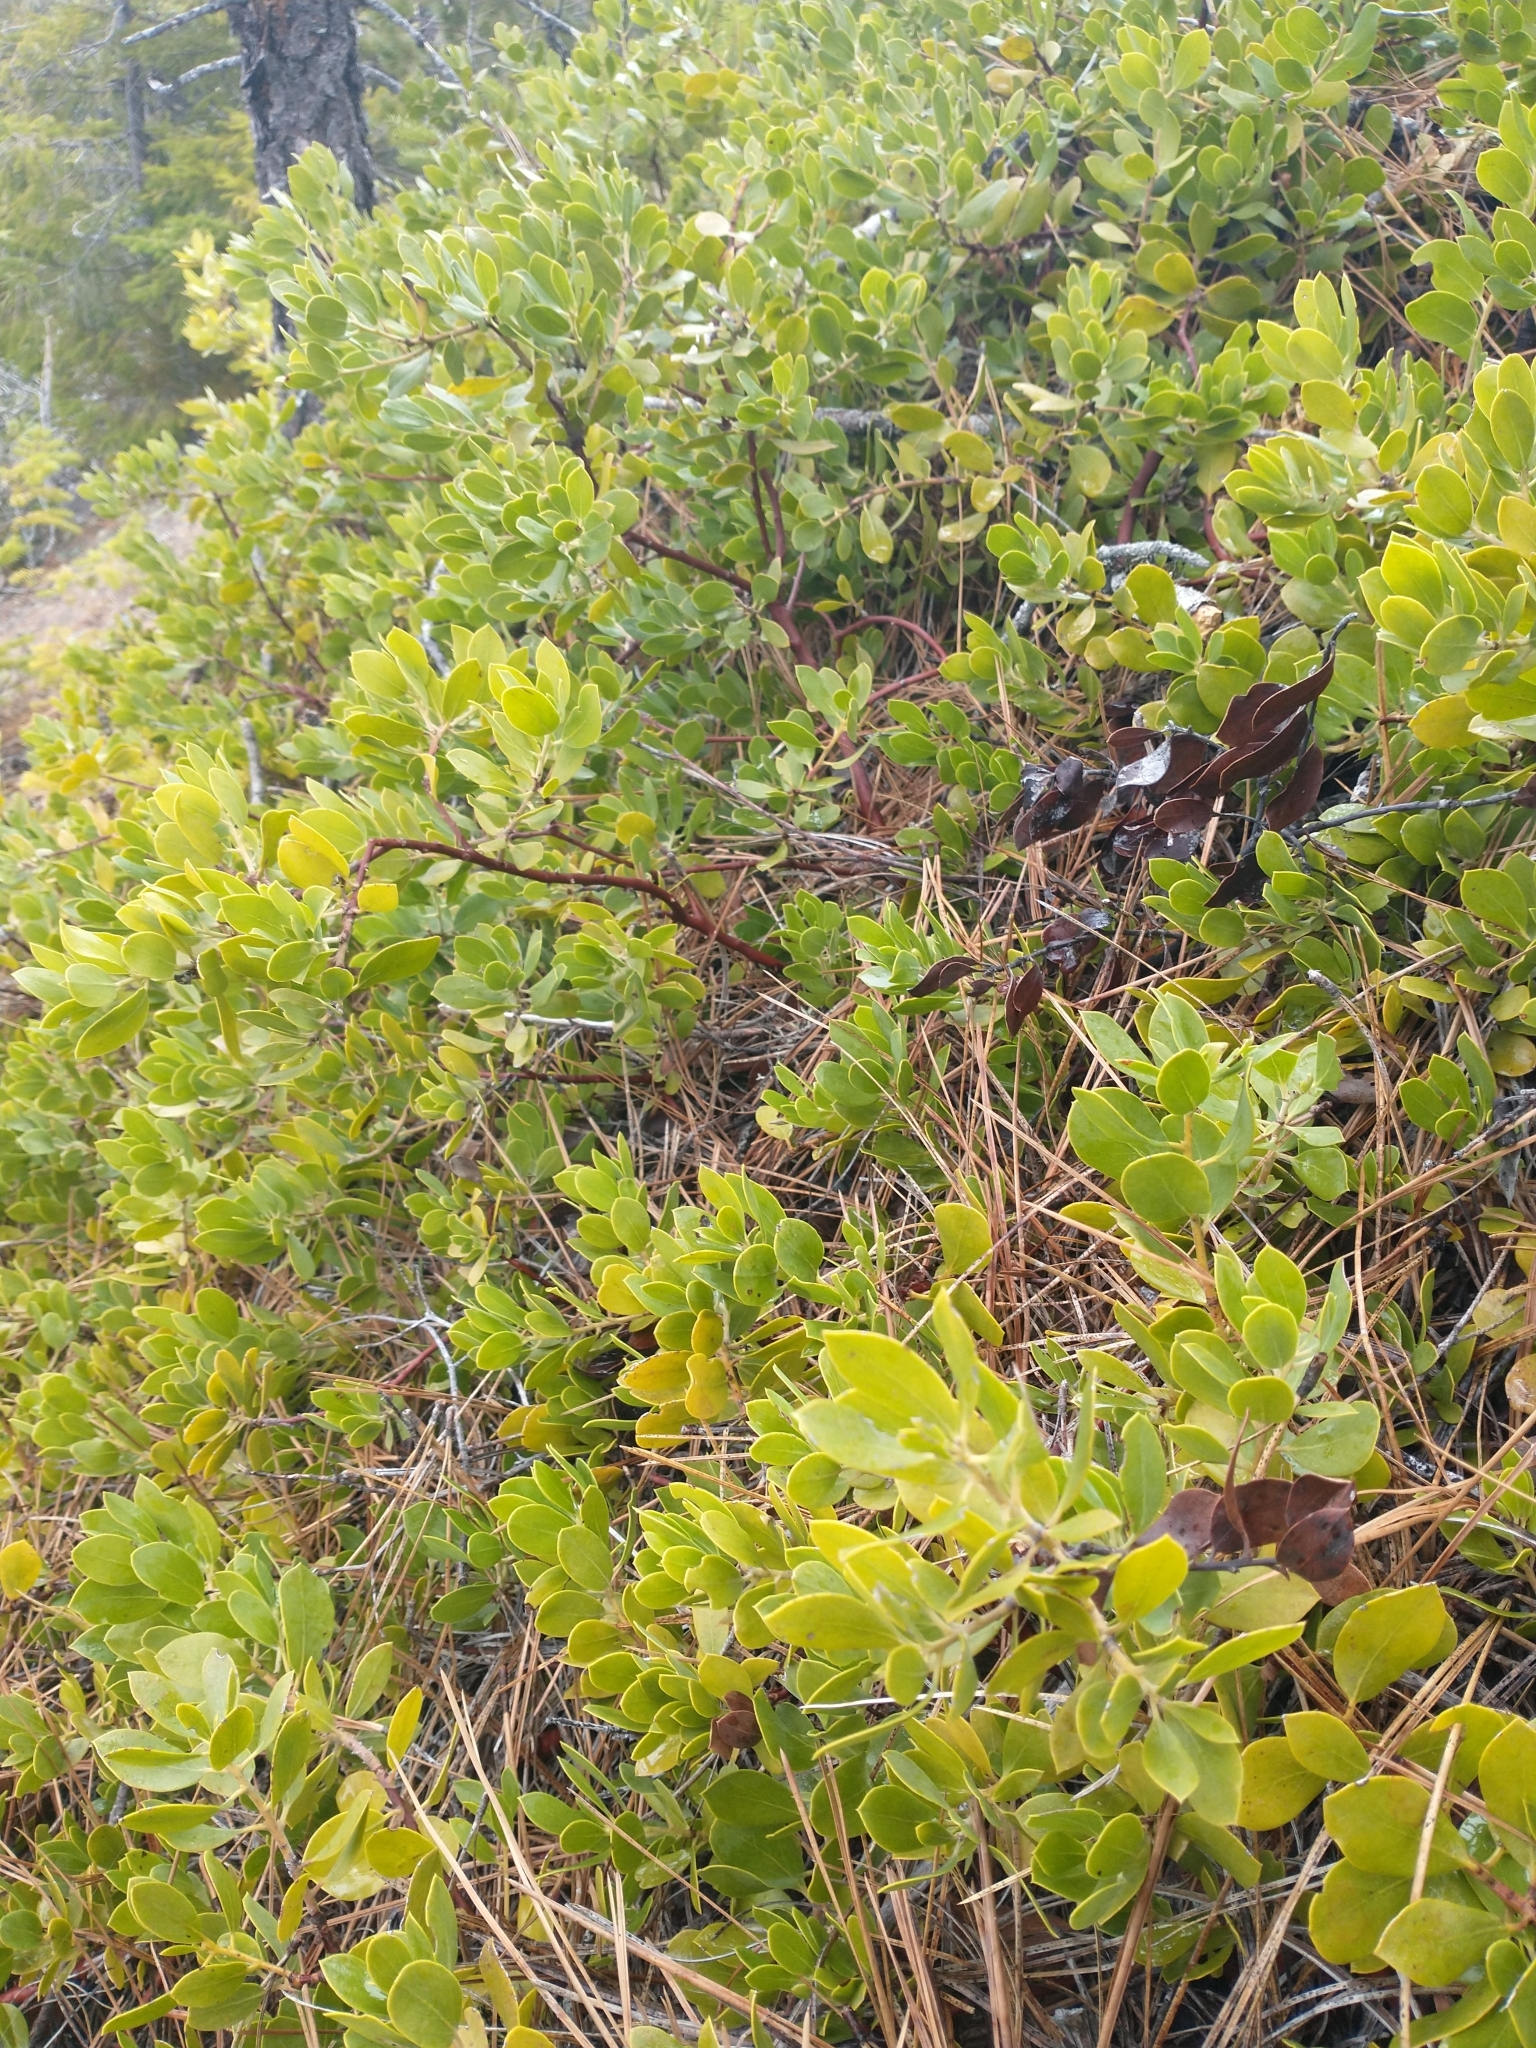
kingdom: Plantae
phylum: Tracheophyta
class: Magnoliopsida
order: Ericales
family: Ericaceae
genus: Arctostaphylos
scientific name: Arctostaphylos nevadensis
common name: Pinemat manzanita
